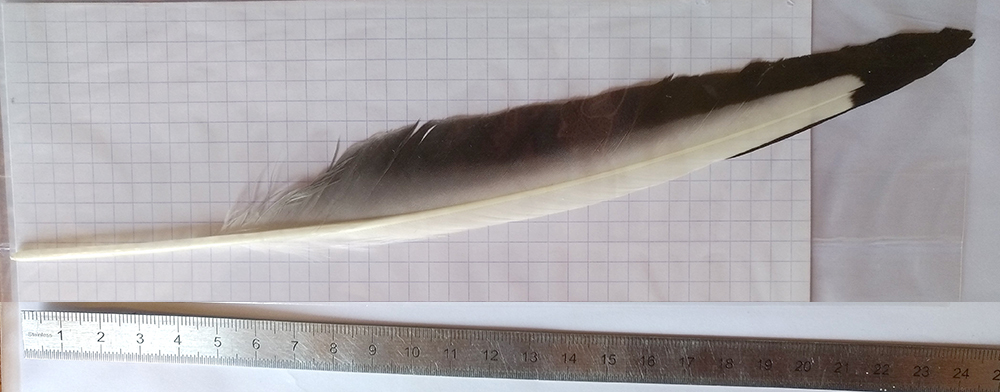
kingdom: Animalia
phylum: Chordata
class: Aves
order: Charadriiformes
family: Laridae
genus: Chroicocephalus
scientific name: Chroicocephalus ridibundus
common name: Black-headed gull
